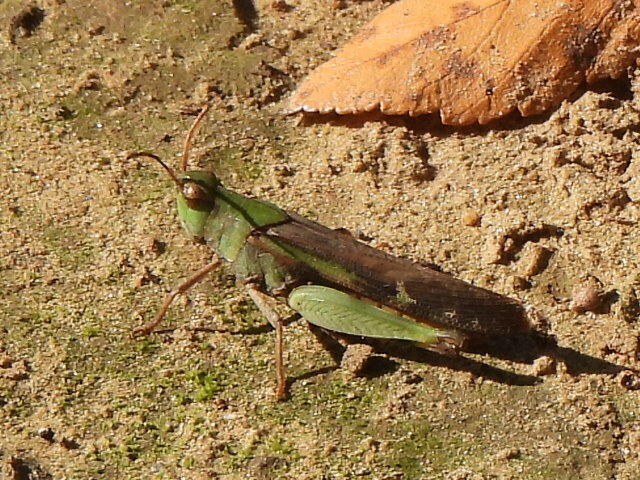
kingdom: Animalia
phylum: Arthropoda
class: Insecta
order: Orthoptera
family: Acrididae
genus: Chortophaga
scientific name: Chortophaga viridifasciata
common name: Green-striped grasshopper
